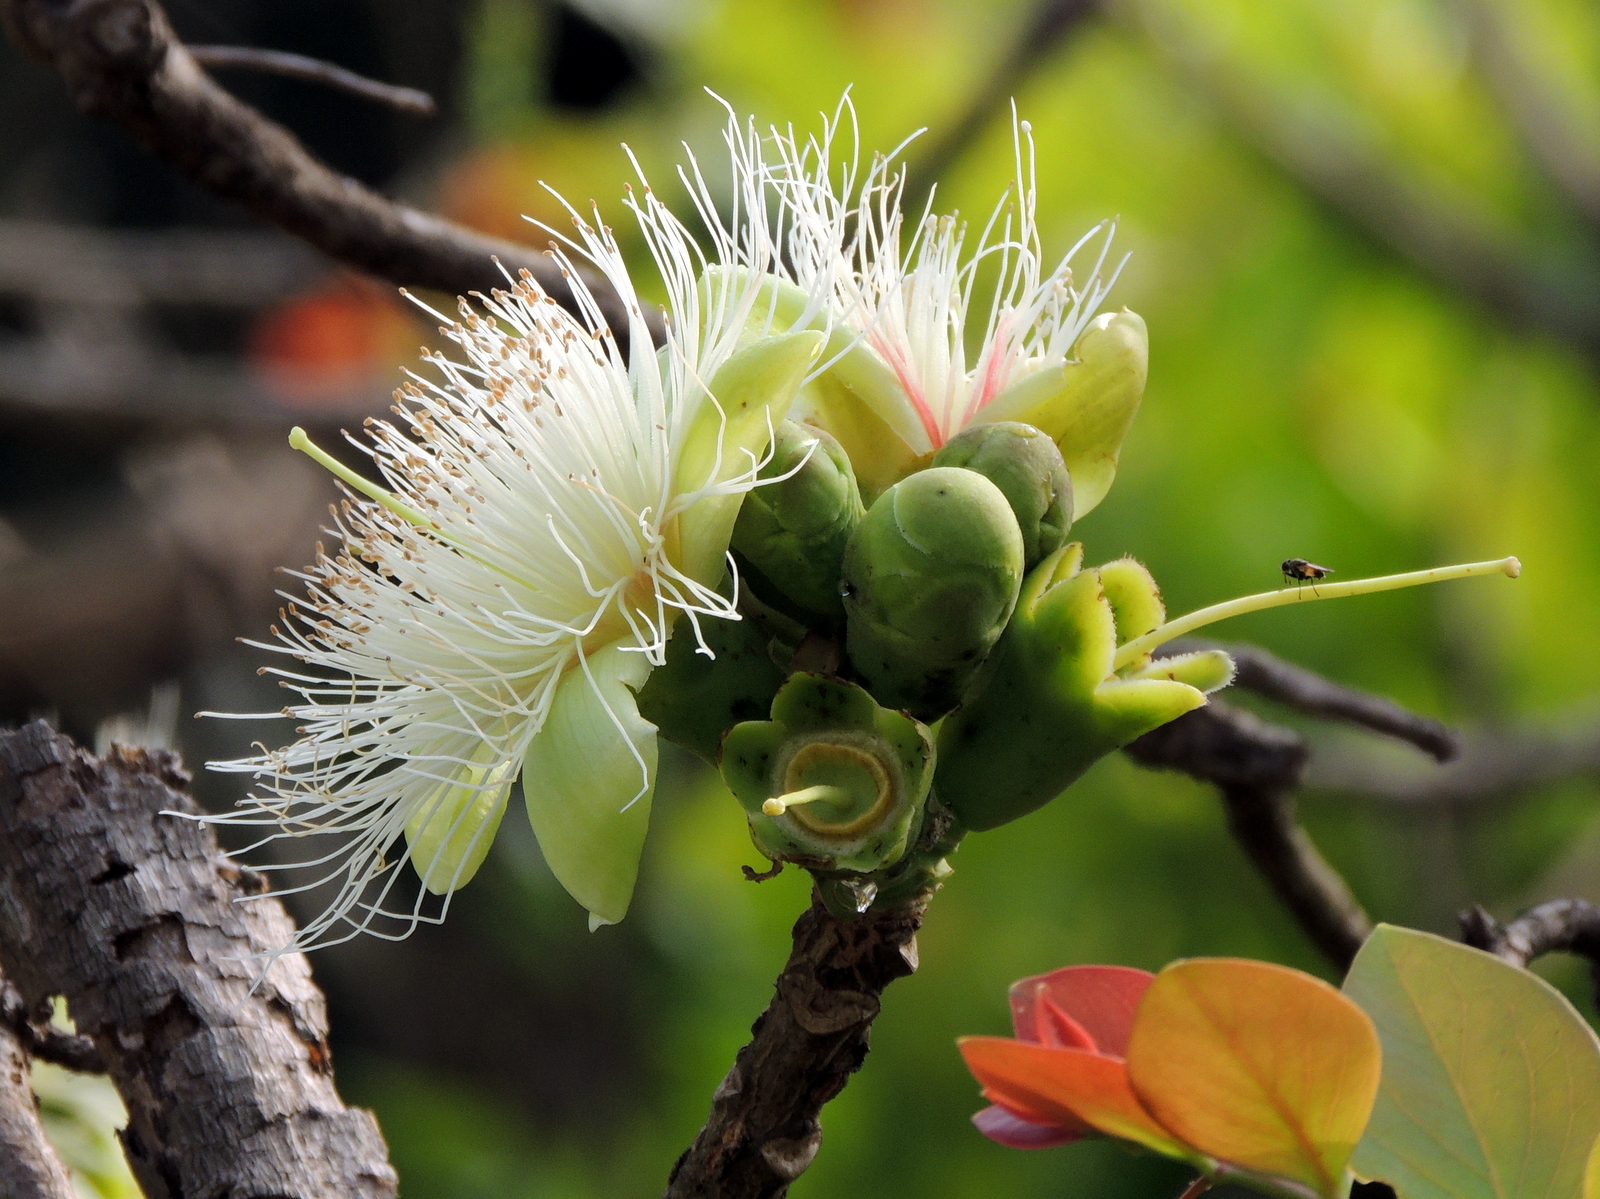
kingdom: Plantae
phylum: Tracheophyta
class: Magnoliopsida
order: Ericales
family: Lecythidaceae
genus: Careya
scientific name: Careya arborea
